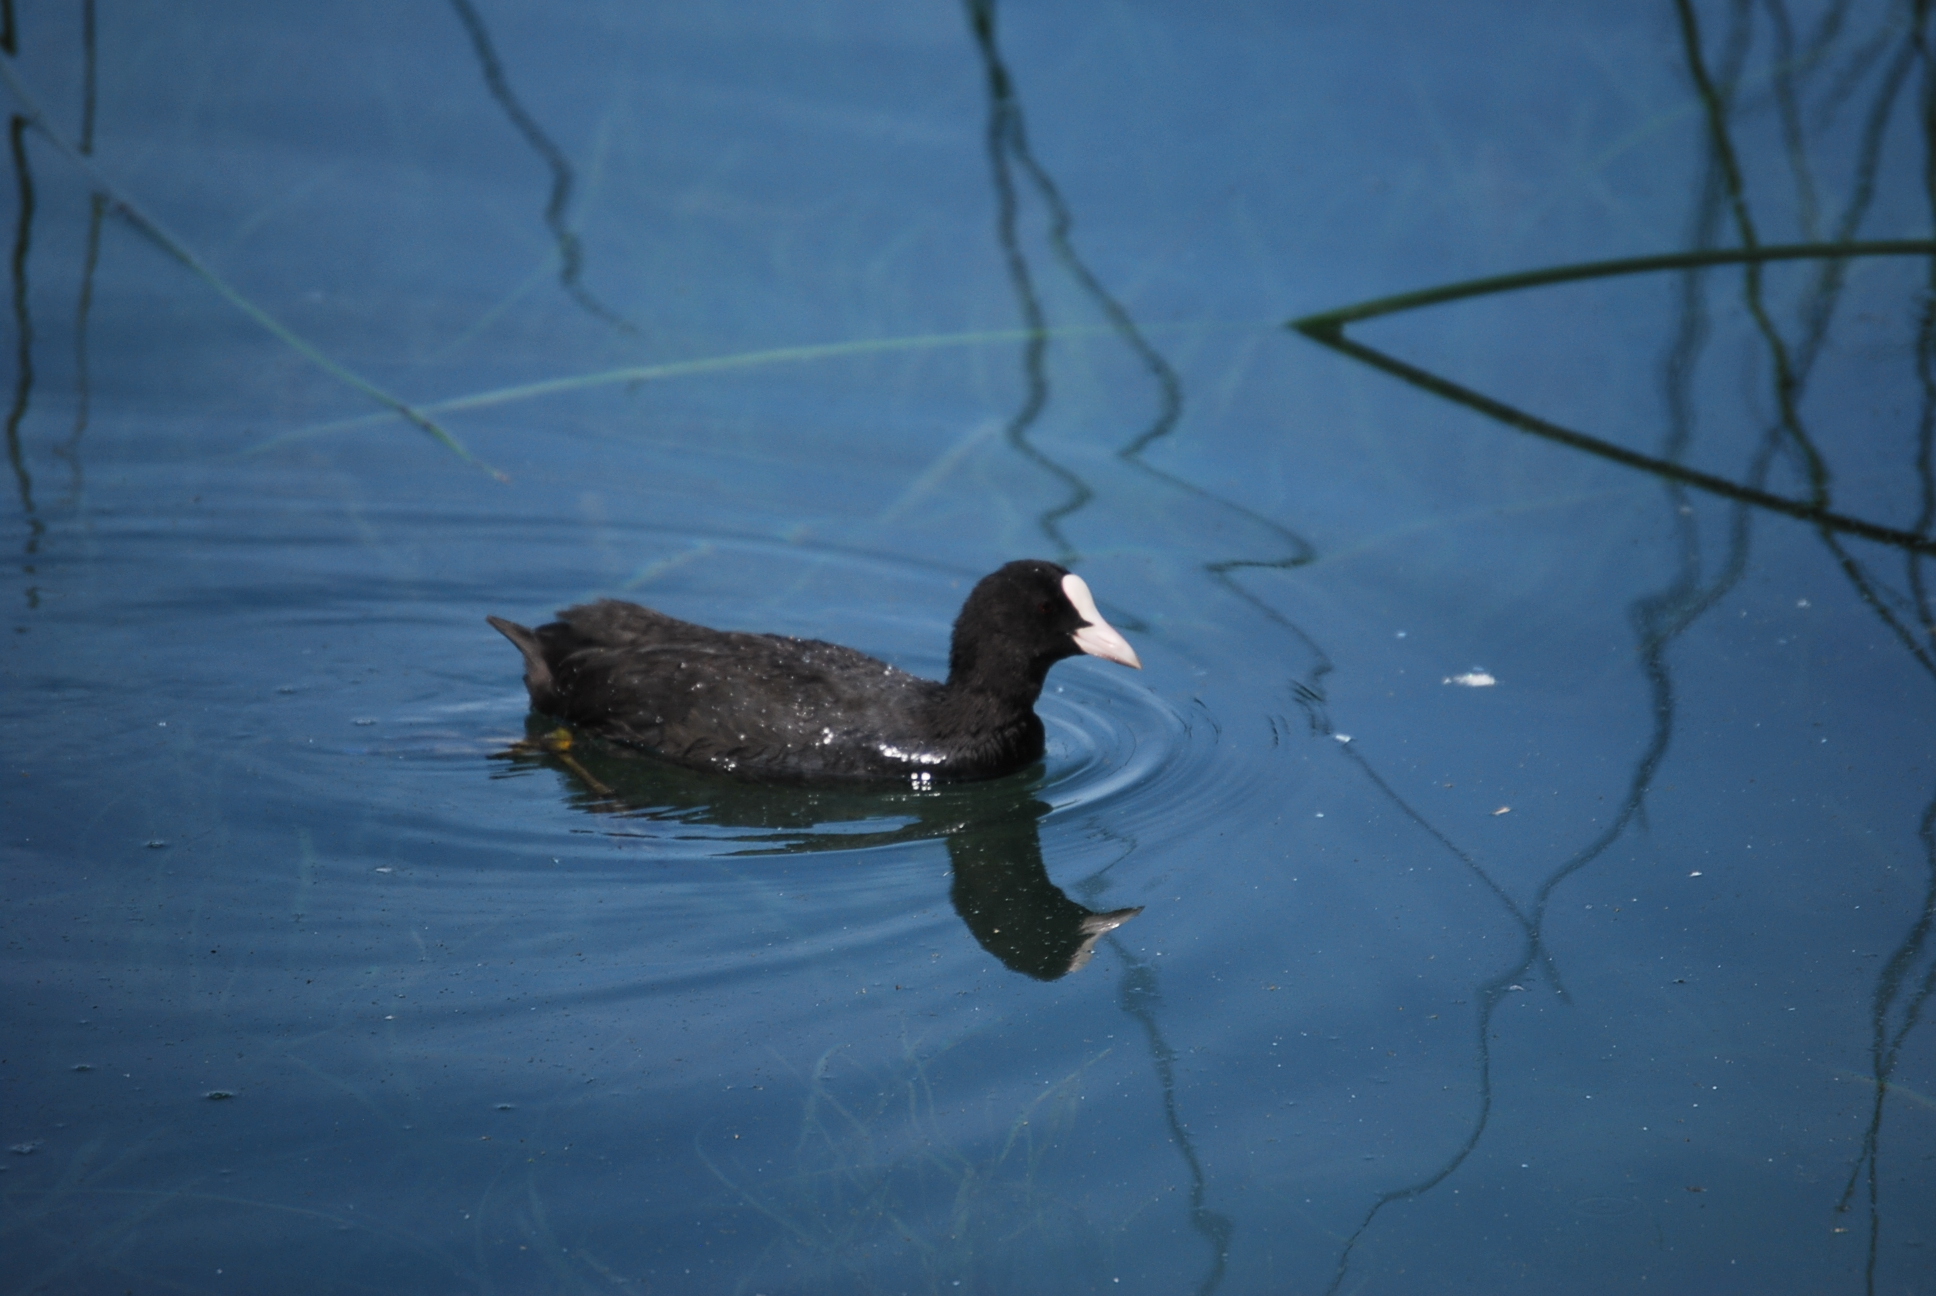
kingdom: Animalia
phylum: Chordata
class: Aves
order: Gruiformes
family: Rallidae
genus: Fulica
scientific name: Fulica atra
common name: Eurasian coot
